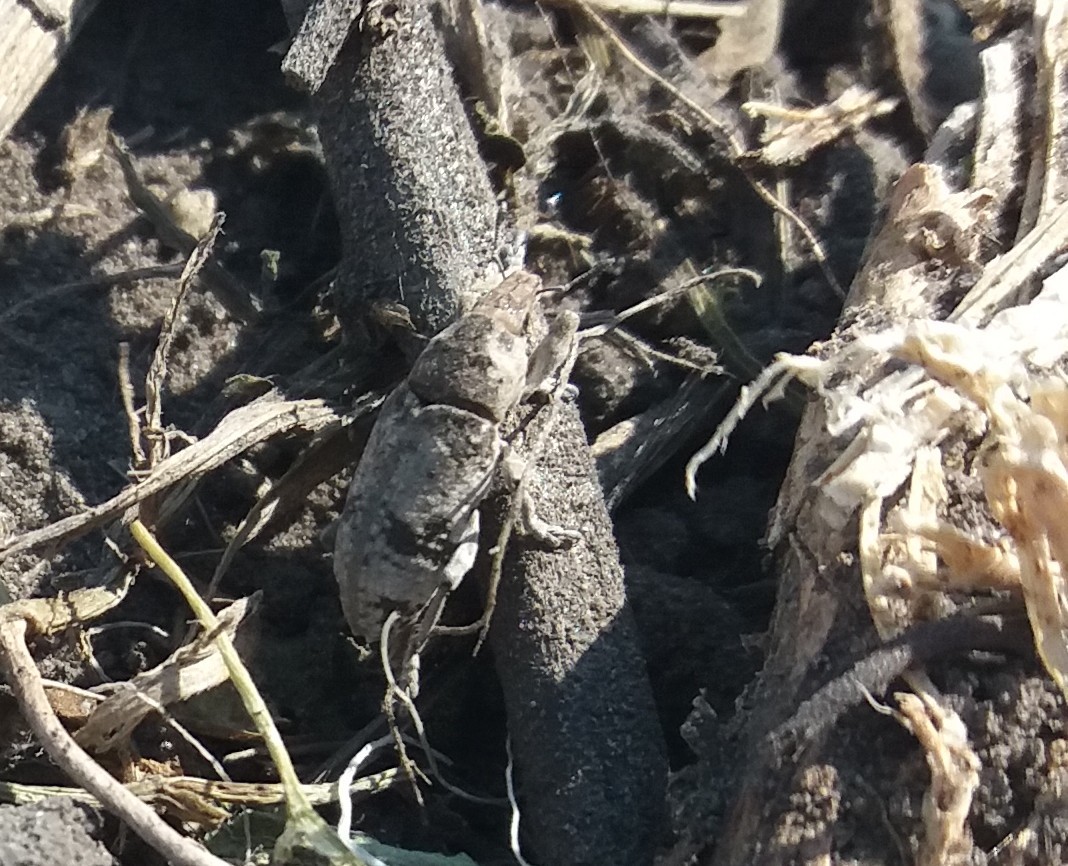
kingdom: Animalia
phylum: Arthropoda
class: Insecta
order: Coleoptera
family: Curculionidae
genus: Bothynoderes
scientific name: Bothynoderes affinis
